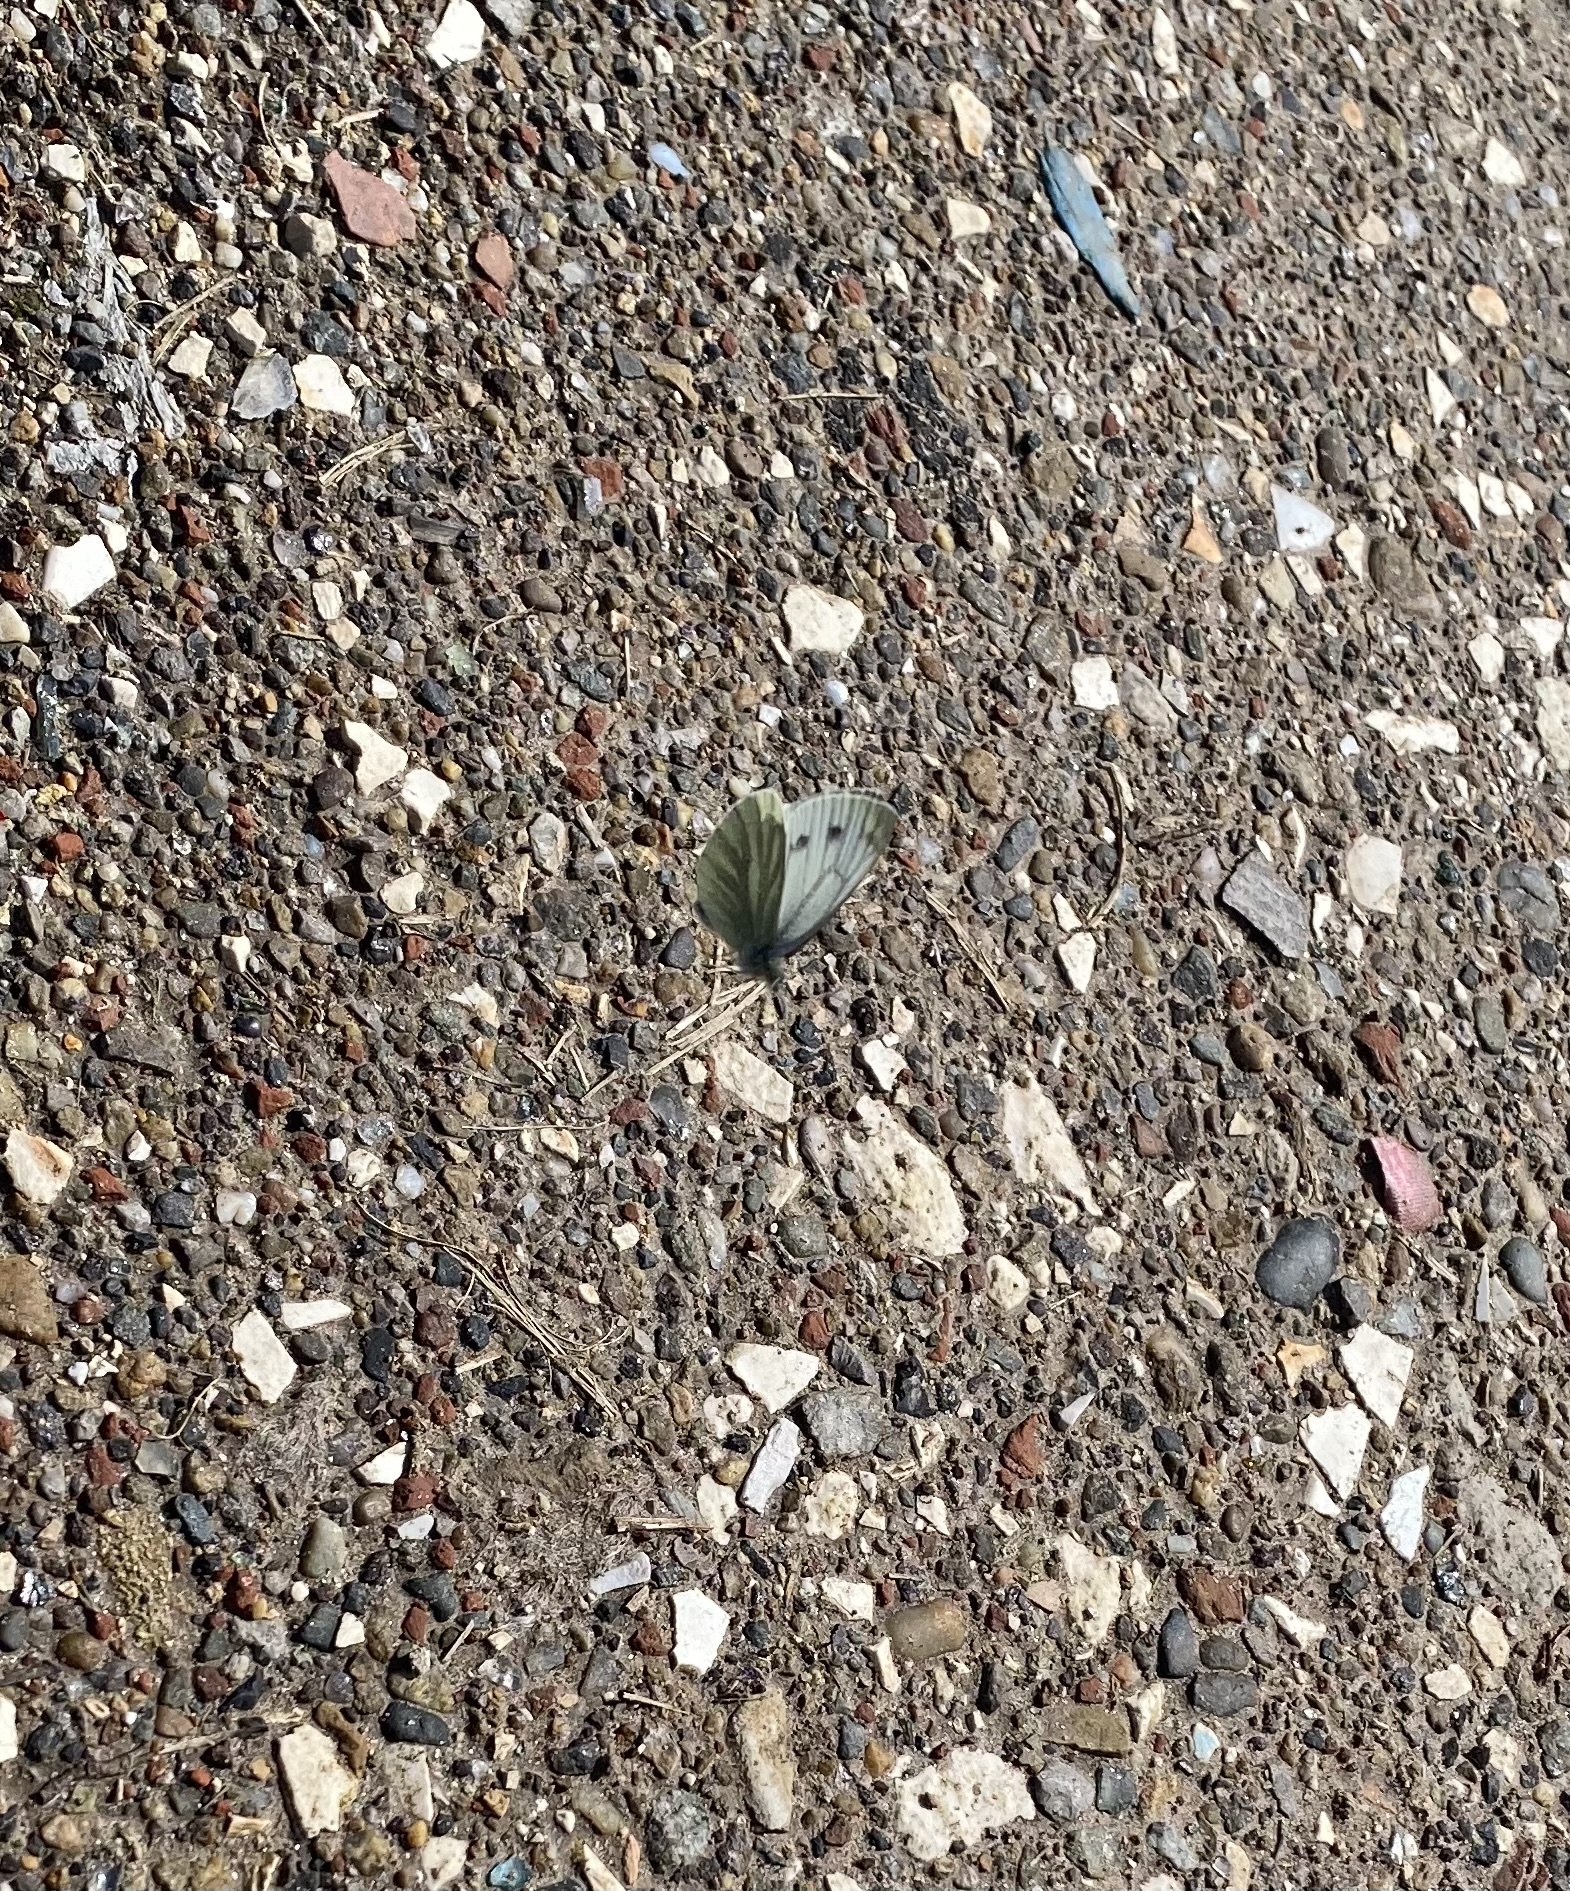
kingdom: Animalia
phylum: Arthropoda
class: Insecta
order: Lepidoptera
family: Pieridae
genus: Pieris
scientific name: Pieris napi
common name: Green-veined white
